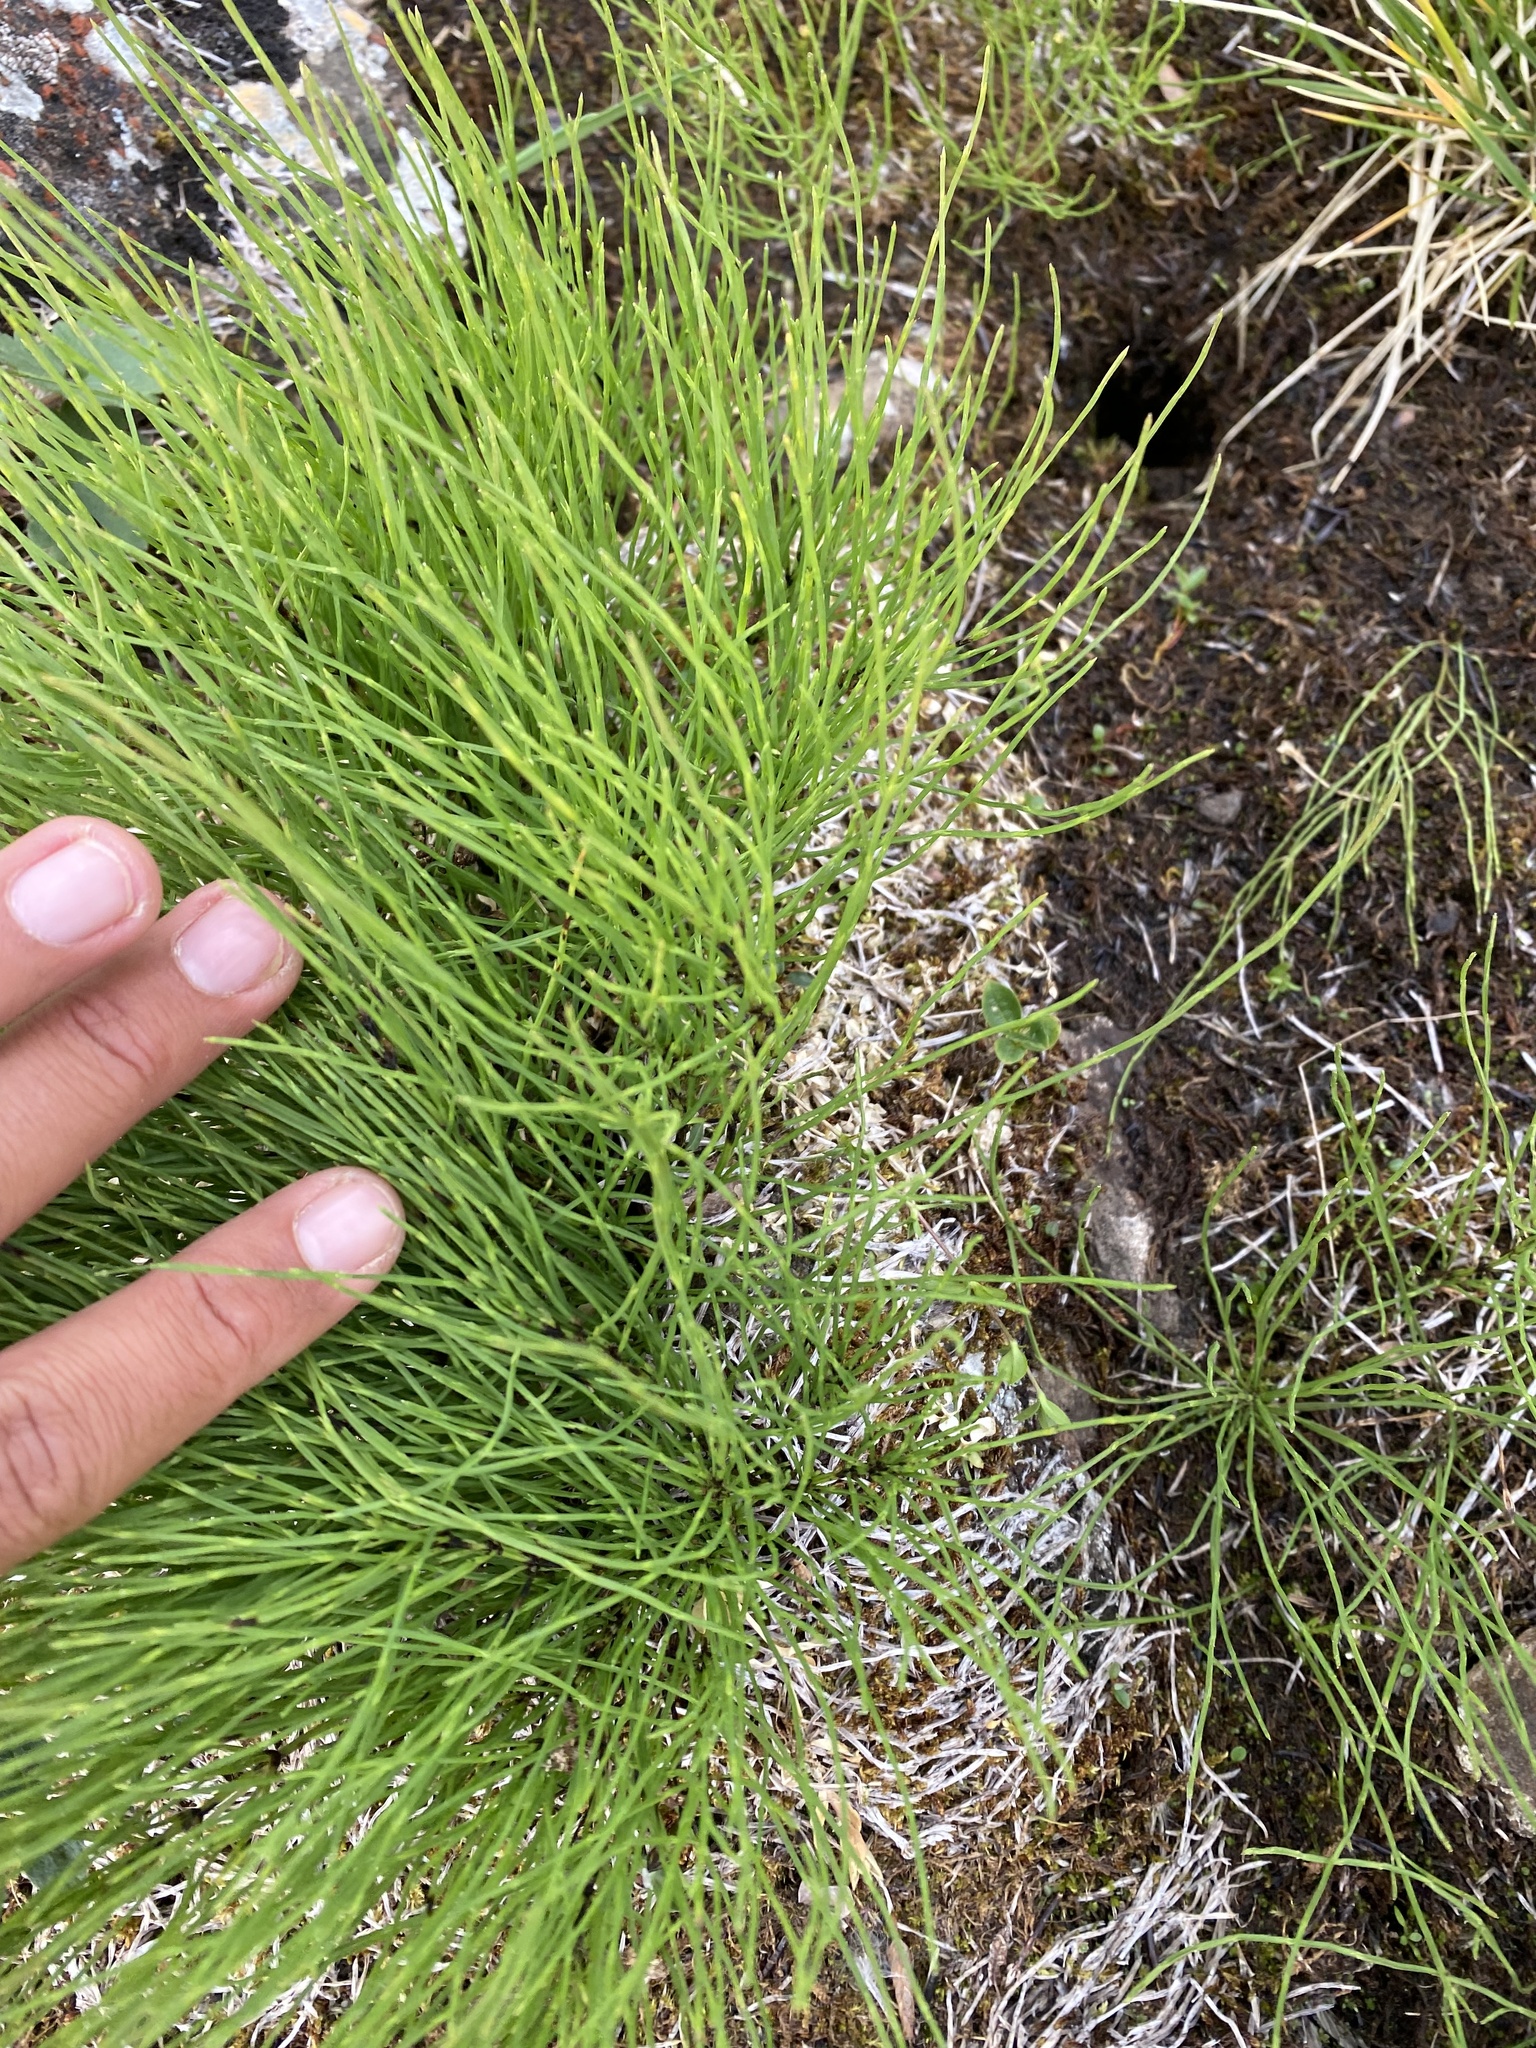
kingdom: Plantae
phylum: Tracheophyta
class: Polypodiopsida
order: Equisetales
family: Equisetaceae
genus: Equisetum
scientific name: Equisetum arvense
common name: Field horsetail
